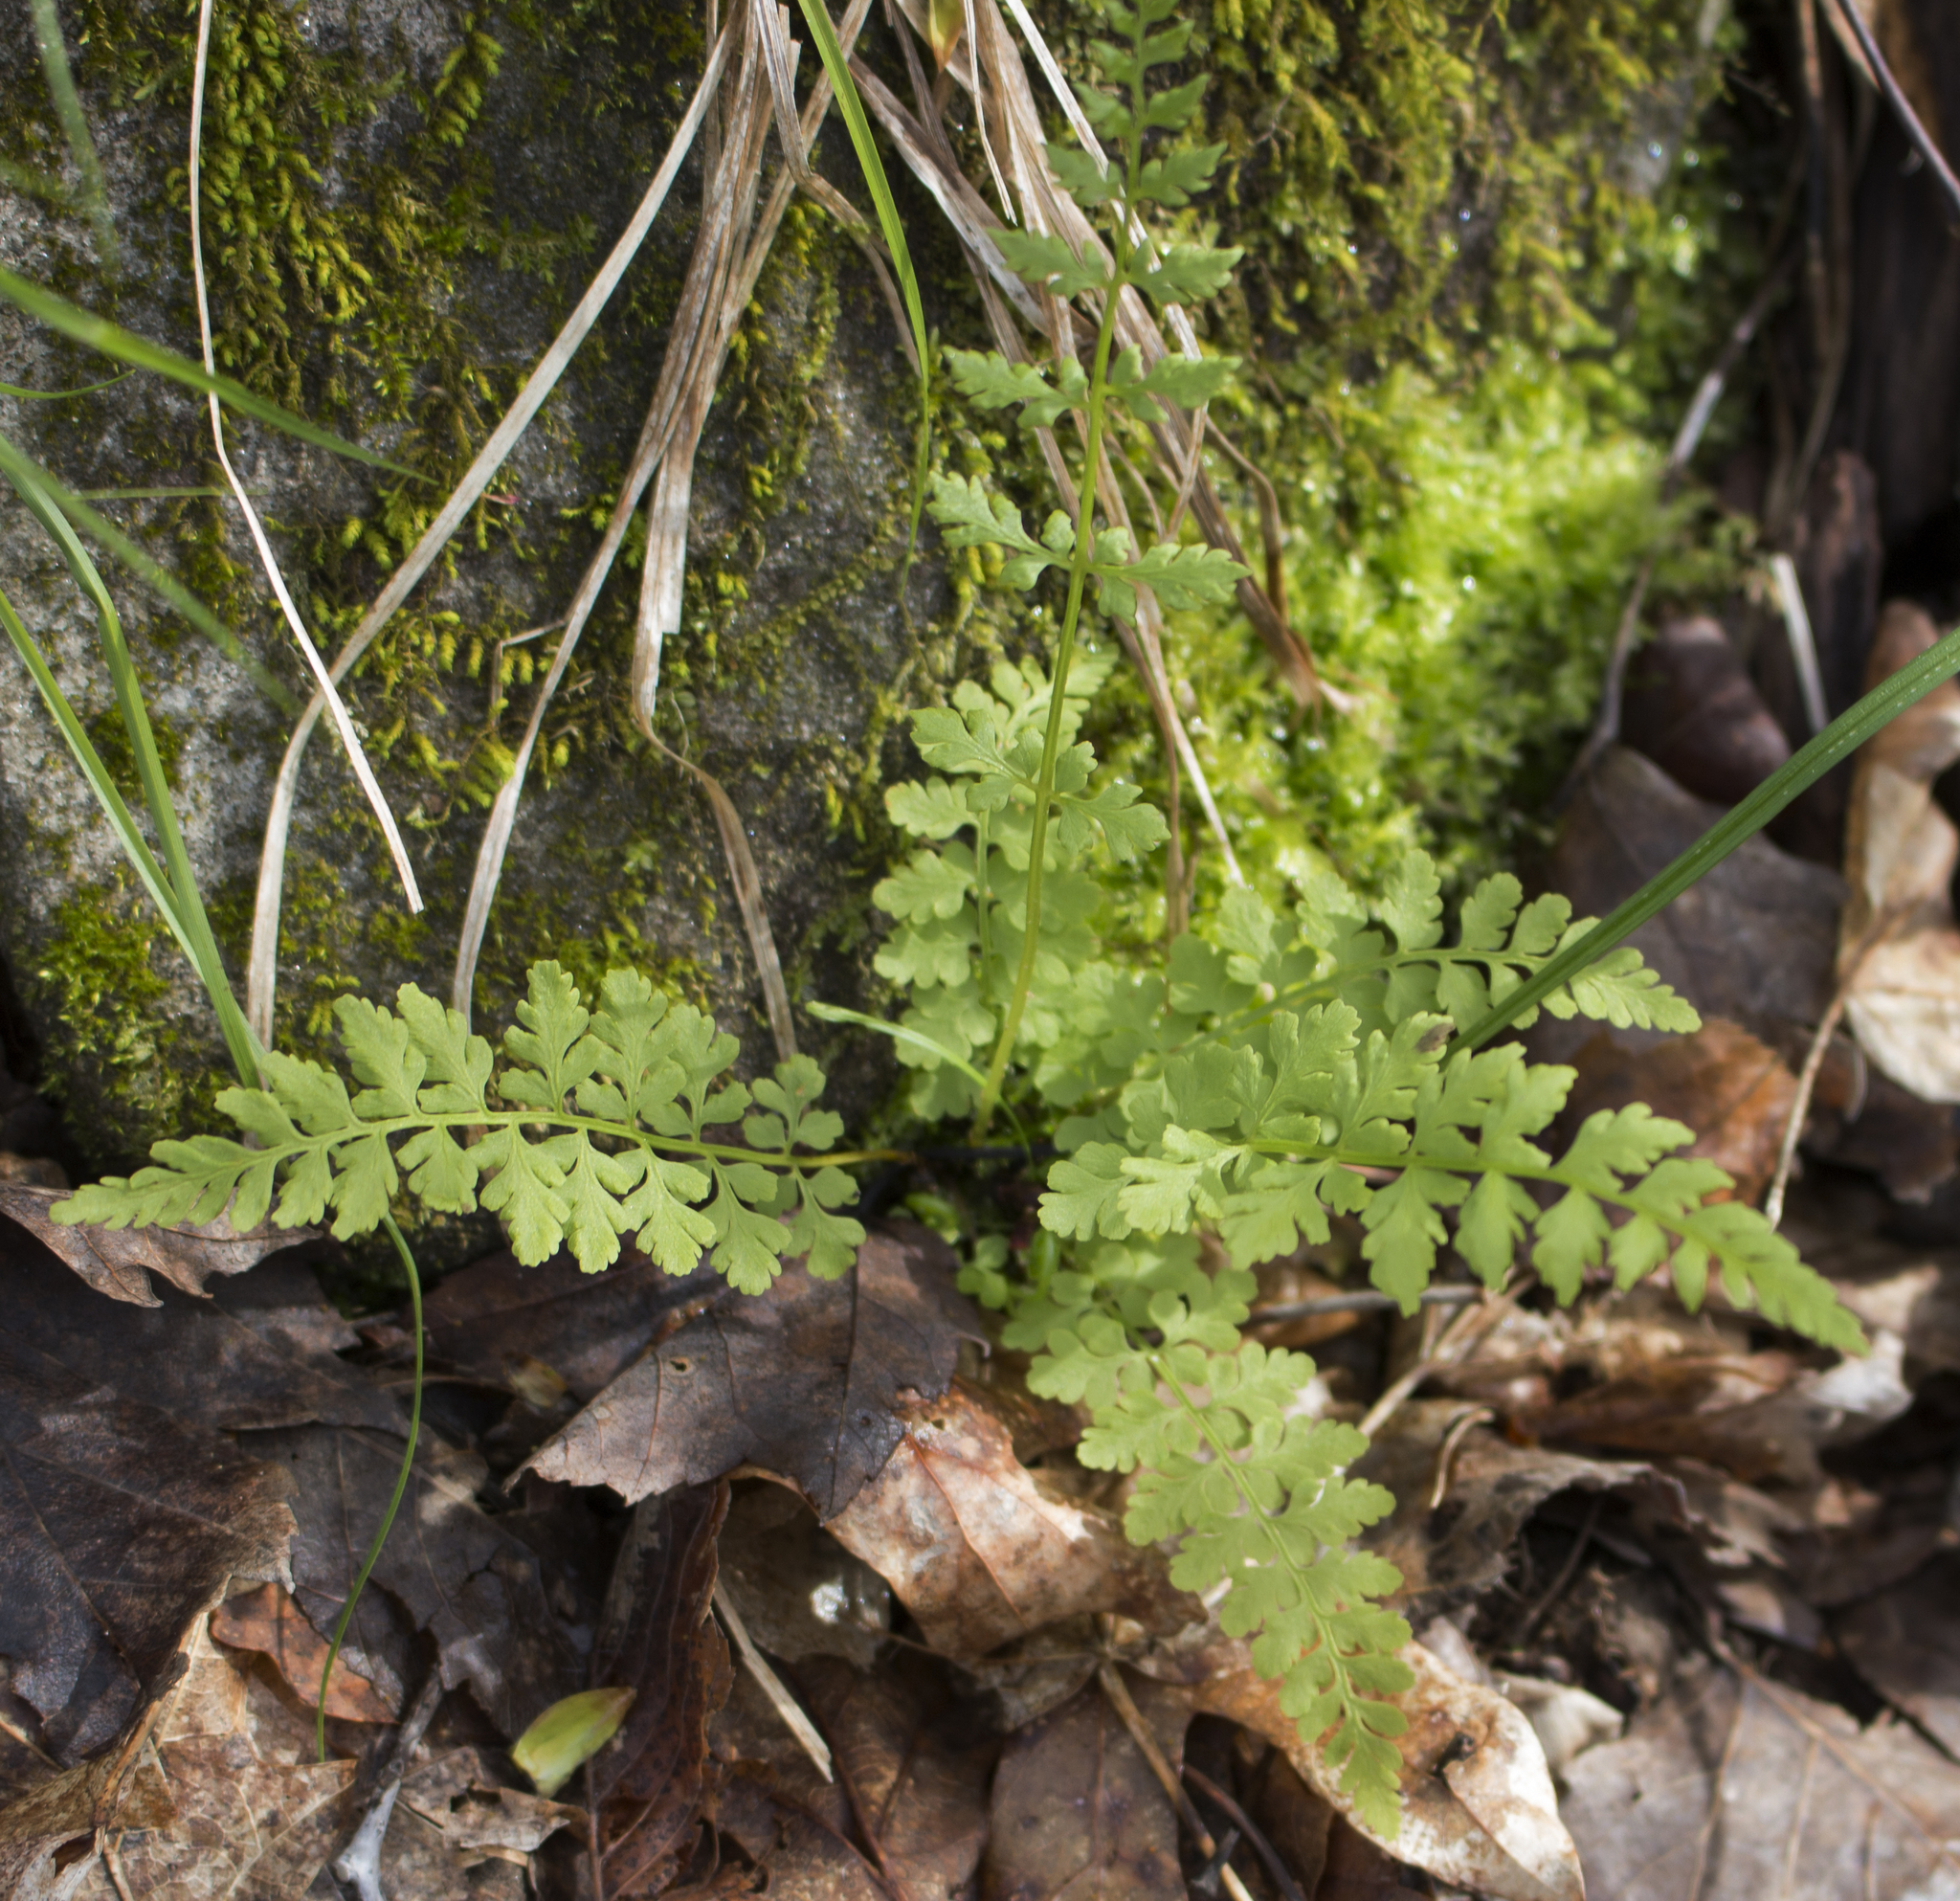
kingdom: Plantae
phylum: Tracheophyta
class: Polypodiopsida
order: Polypodiales
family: Cystopteridaceae
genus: Cystopteris
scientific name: Cystopteris fragilis
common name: Brittle bladder fern
